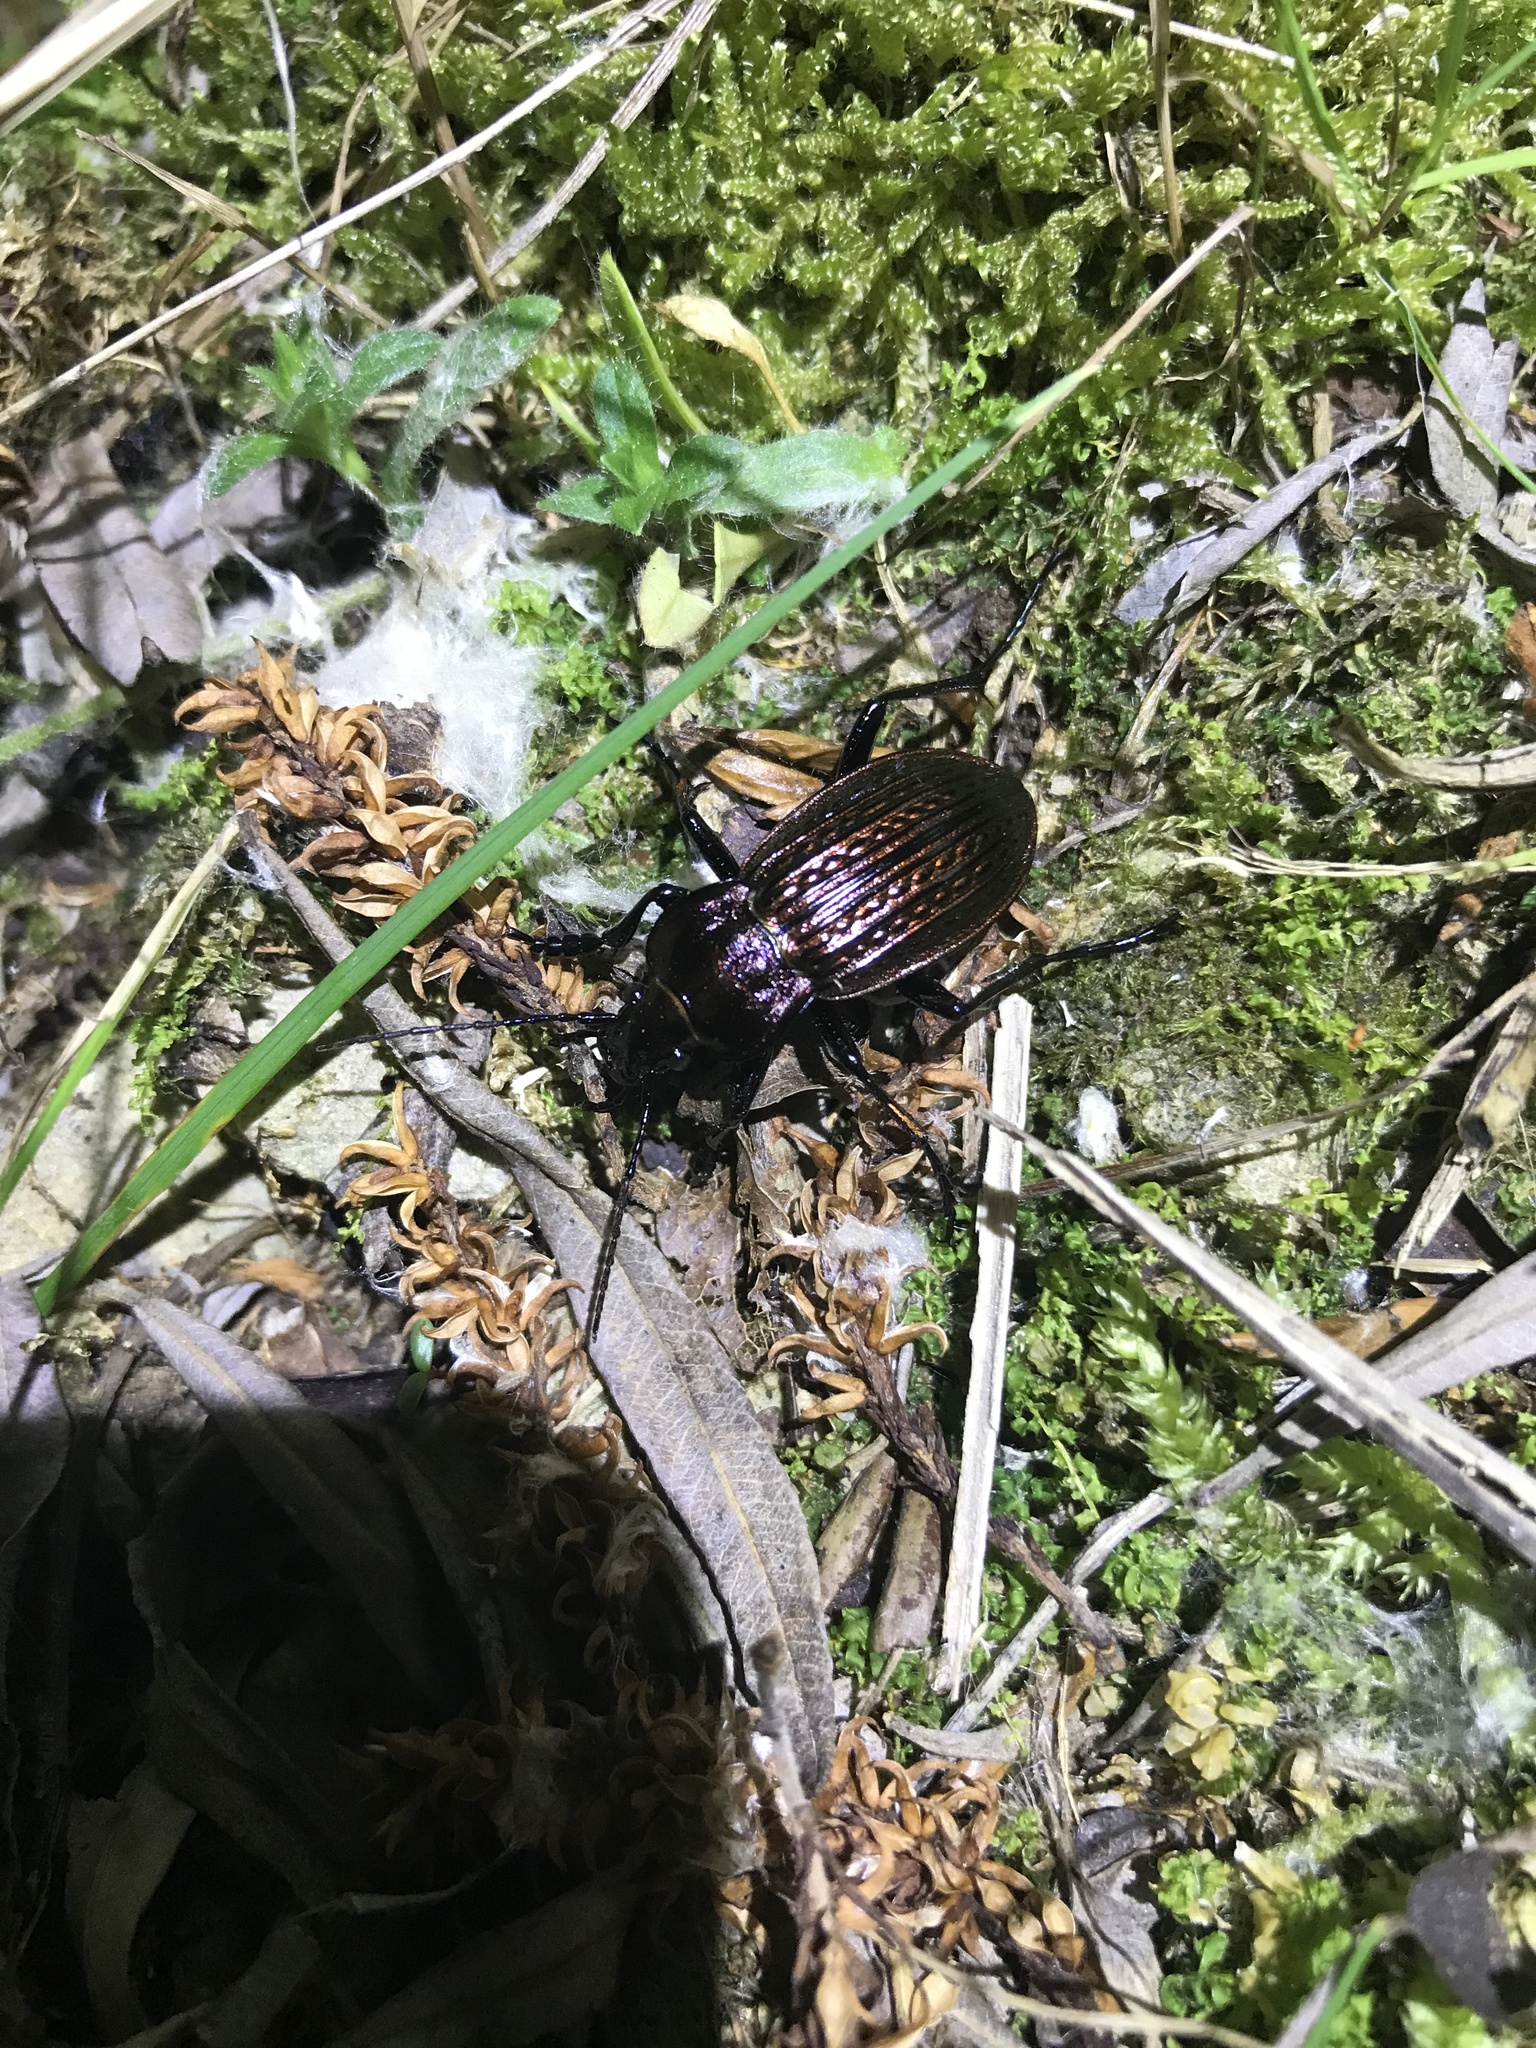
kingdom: Animalia
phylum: Arthropoda
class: Insecta
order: Coleoptera
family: Carabidae
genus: Carabus
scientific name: Carabus ulrichii
